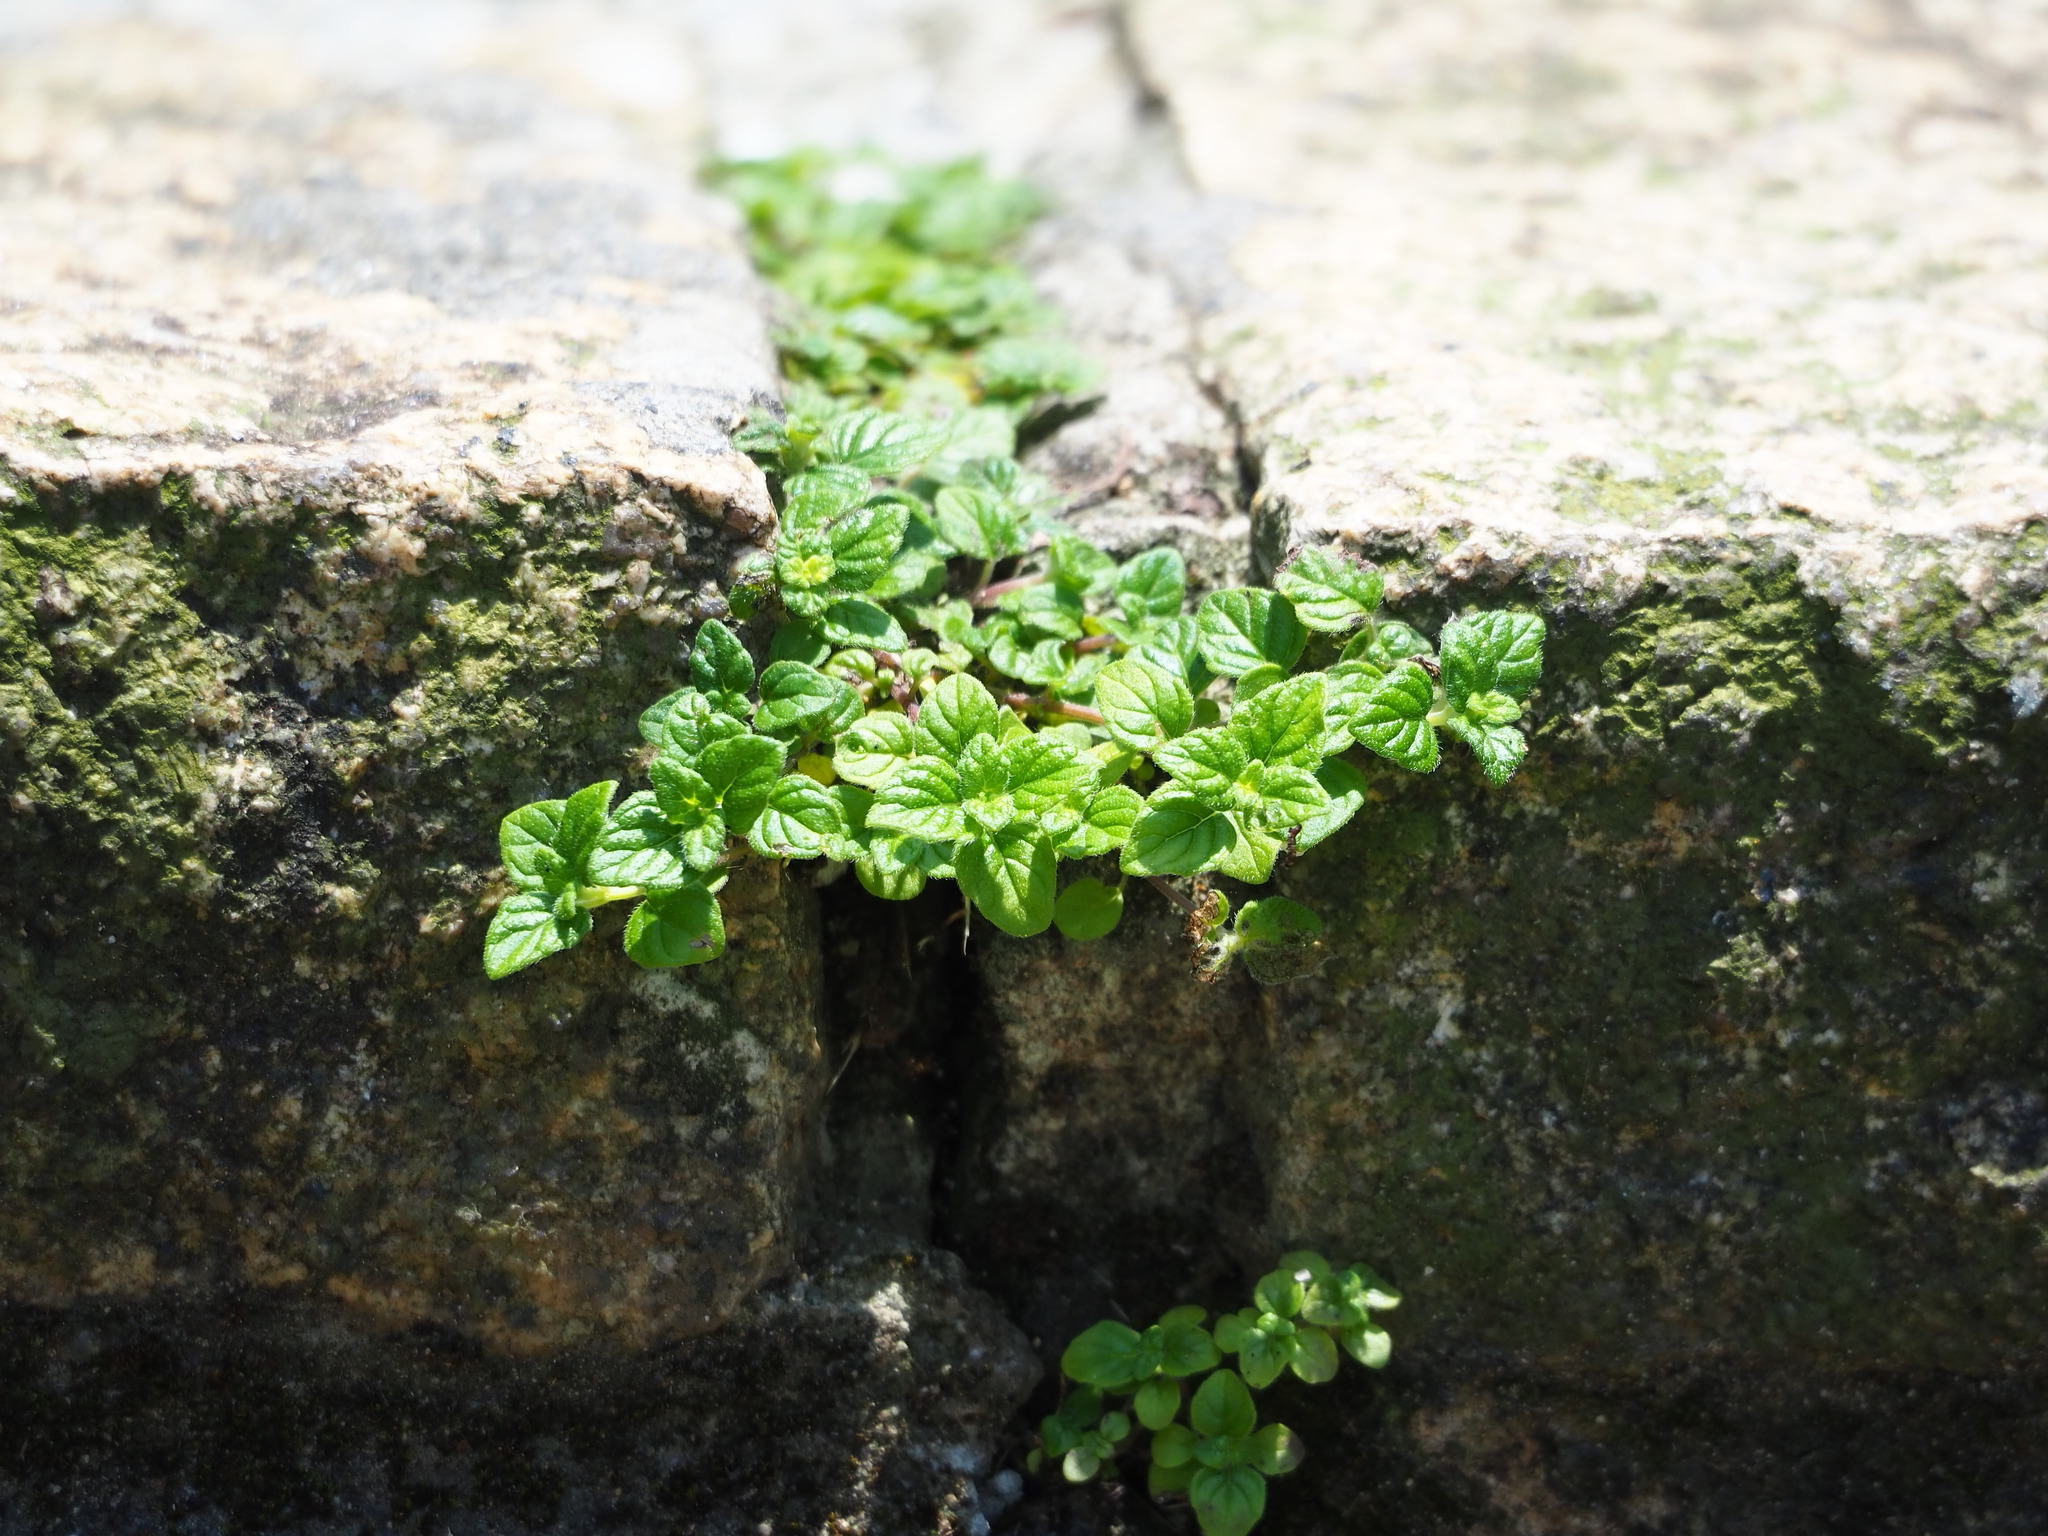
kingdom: Plantae
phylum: Tracheophyta
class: Magnoliopsida
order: Lamiales
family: Lamiaceae
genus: Clinopodium
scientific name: Clinopodium chinense
